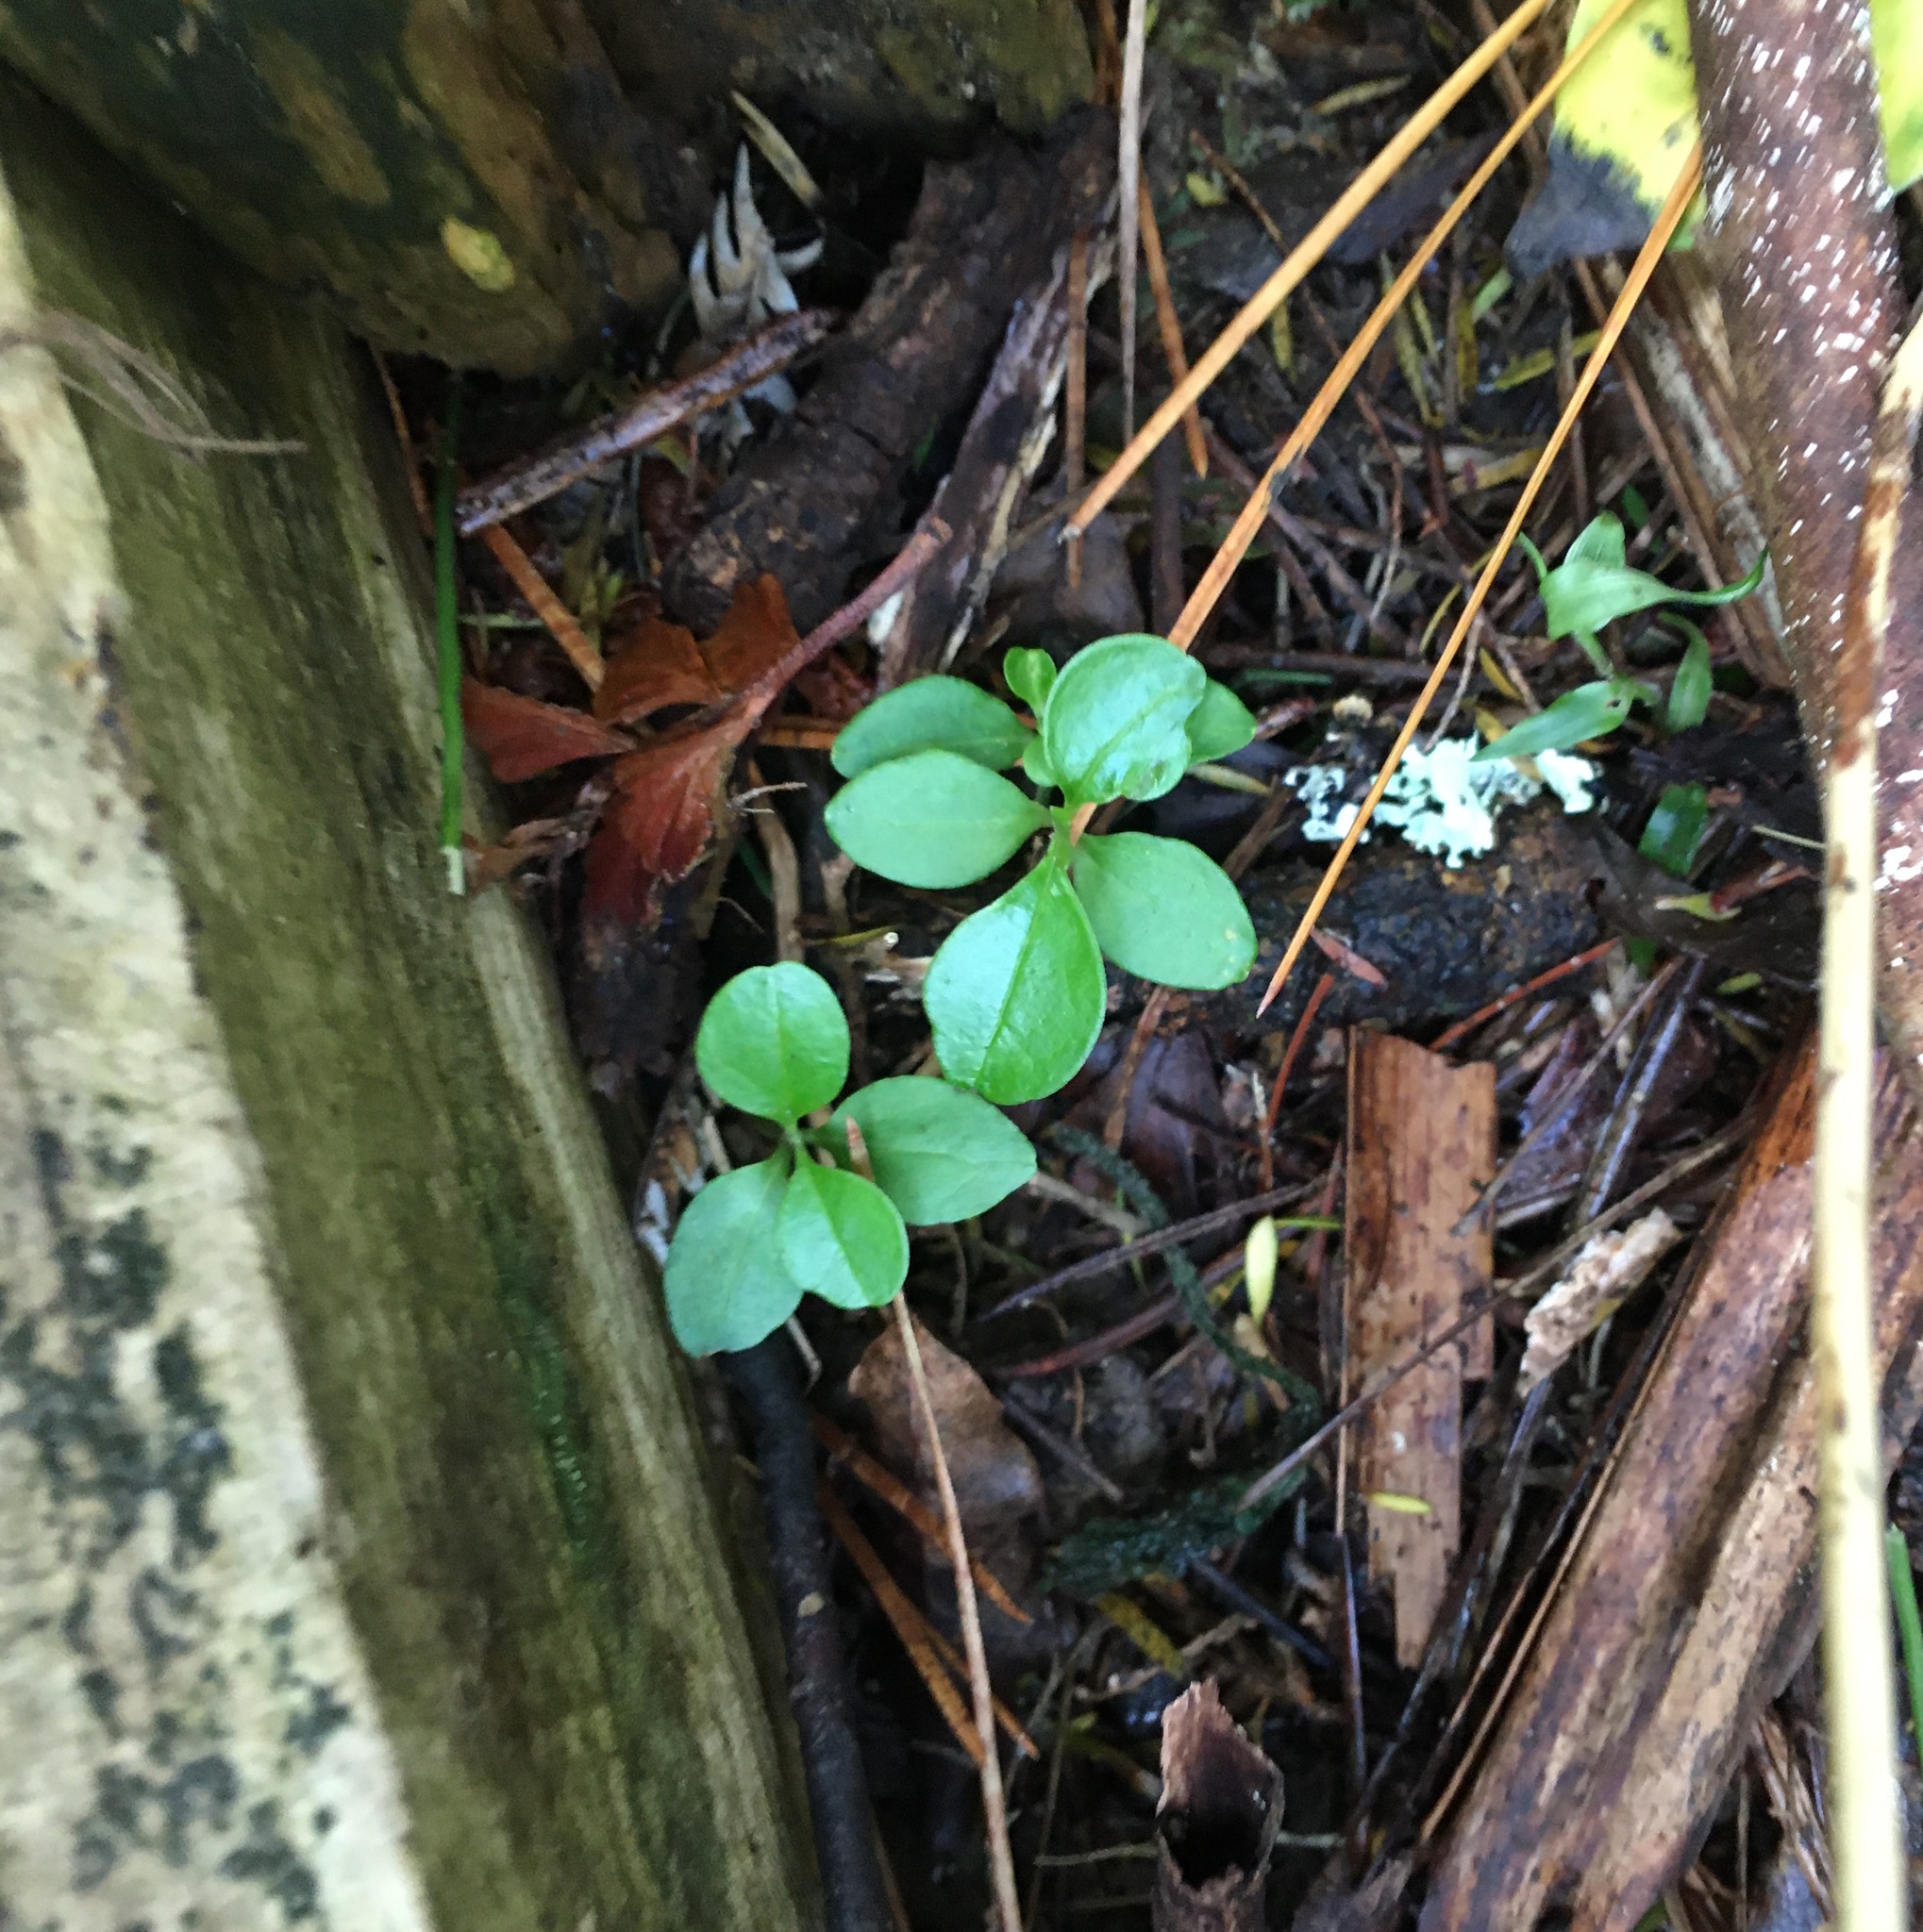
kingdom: Plantae
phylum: Tracheophyta
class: Magnoliopsida
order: Lamiales
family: Oleaceae
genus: Ligustrum
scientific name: Ligustrum lucidum
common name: Glossy privet
